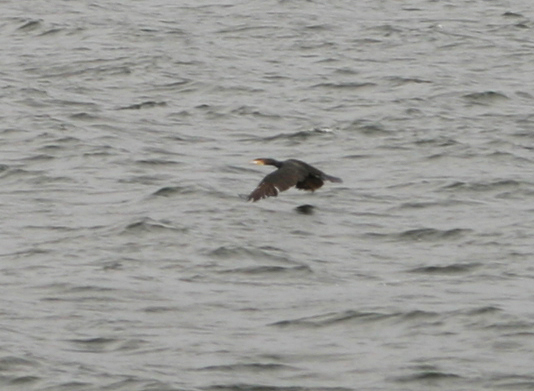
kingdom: Animalia
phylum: Chordata
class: Aves
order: Suliformes
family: Phalacrocoracidae
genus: Phalacrocorax
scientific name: Phalacrocorax carbo
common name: Great cormorant
